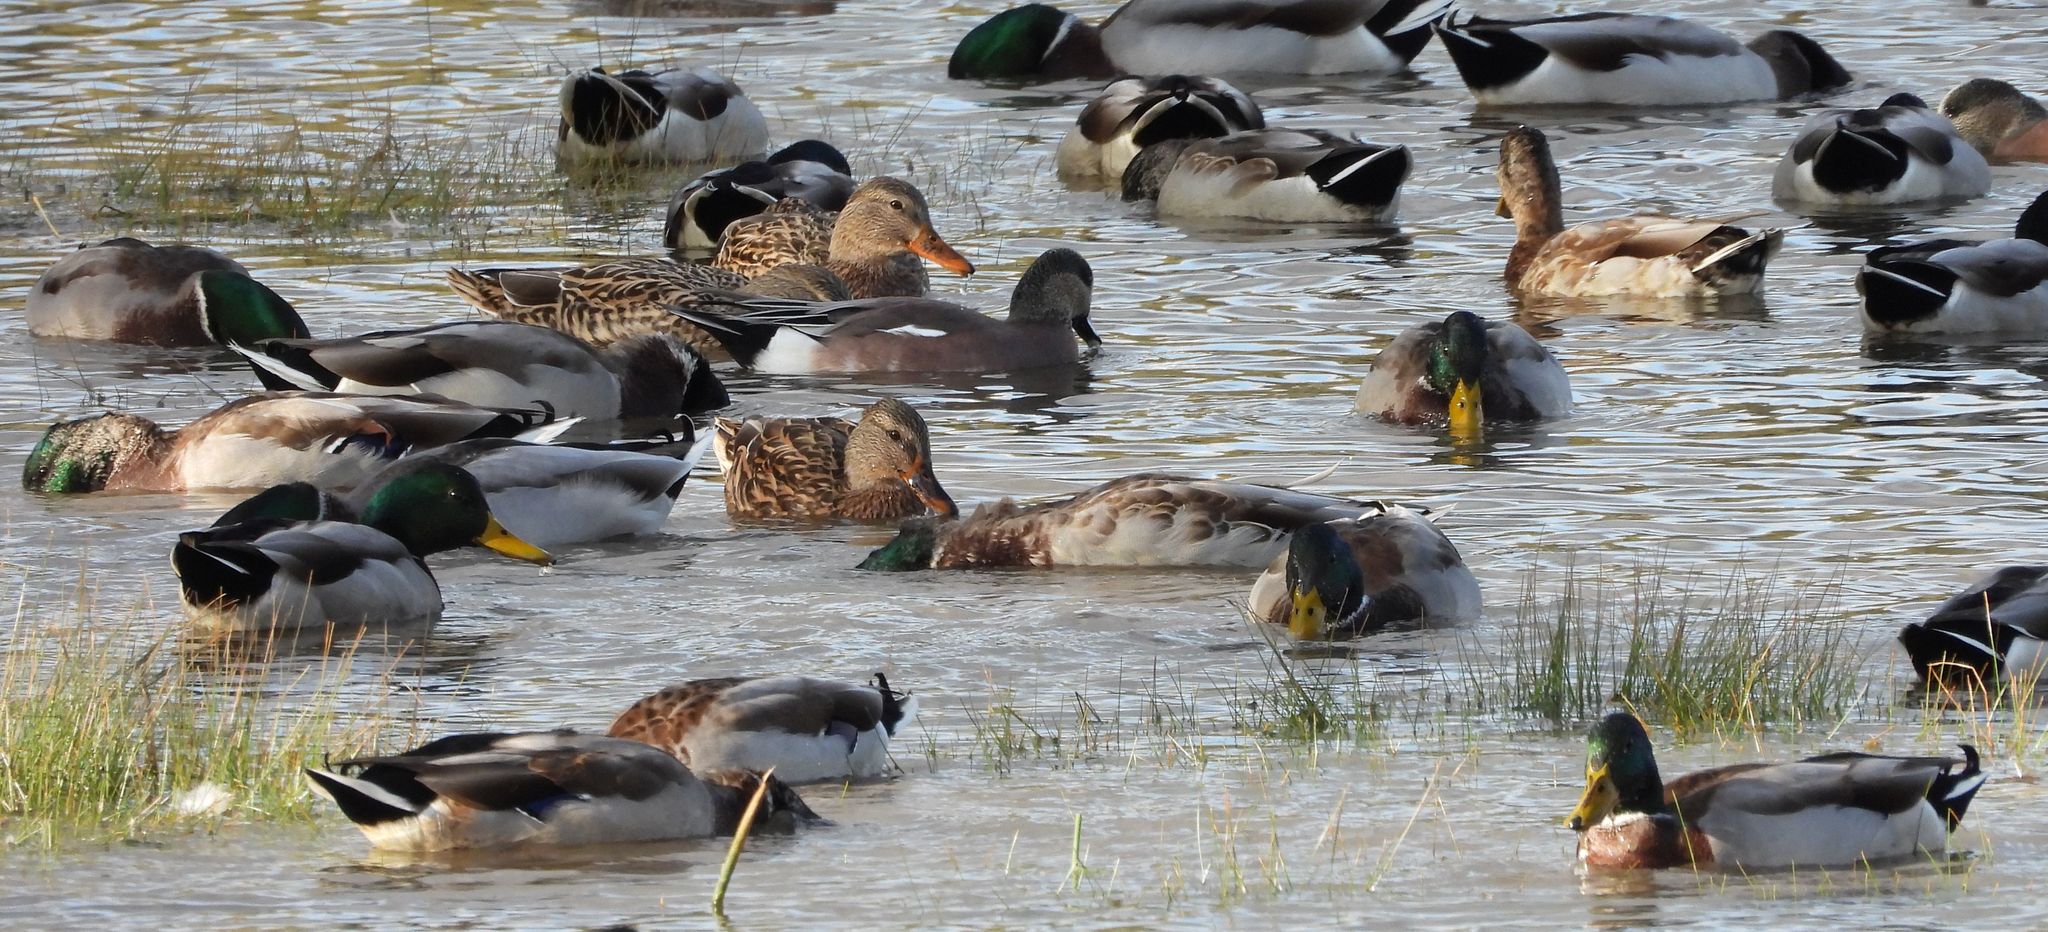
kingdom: Animalia
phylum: Chordata
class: Aves
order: Anseriformes
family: Anatidae
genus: Anas
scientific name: Anas platyrhynchos
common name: Mallard
